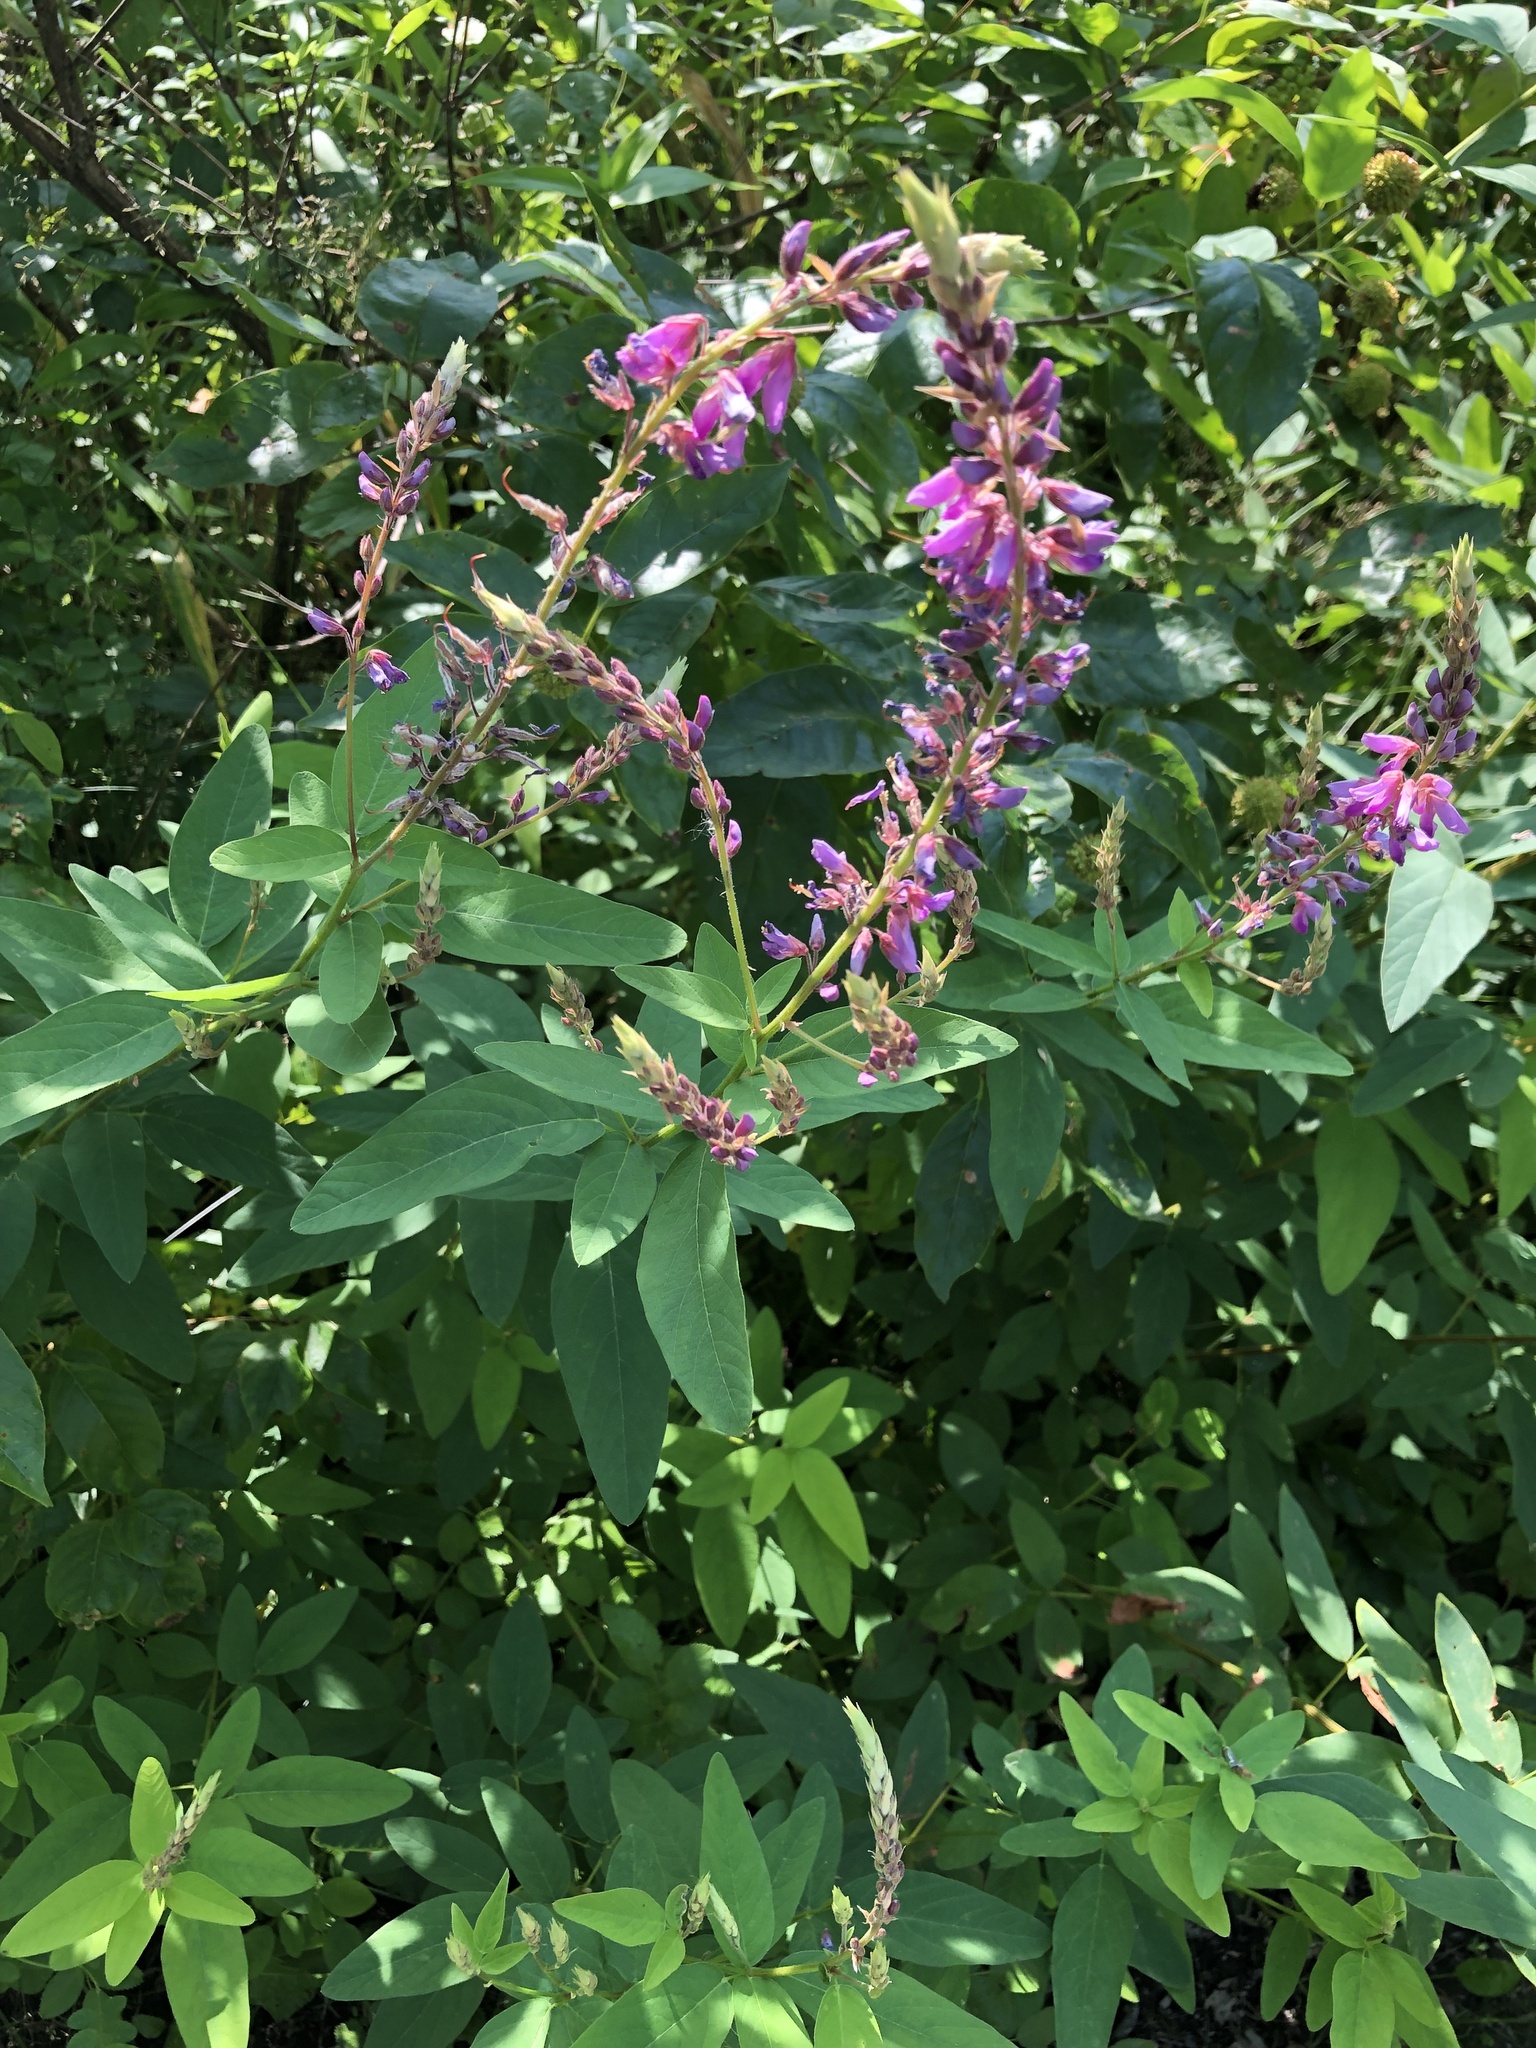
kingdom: Plantae
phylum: Tracheophyta
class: Magnoliopsida
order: Fabales
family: Fabaceae
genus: Desmodium
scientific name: Desmodium canadense
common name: Canada tick-trefoil
